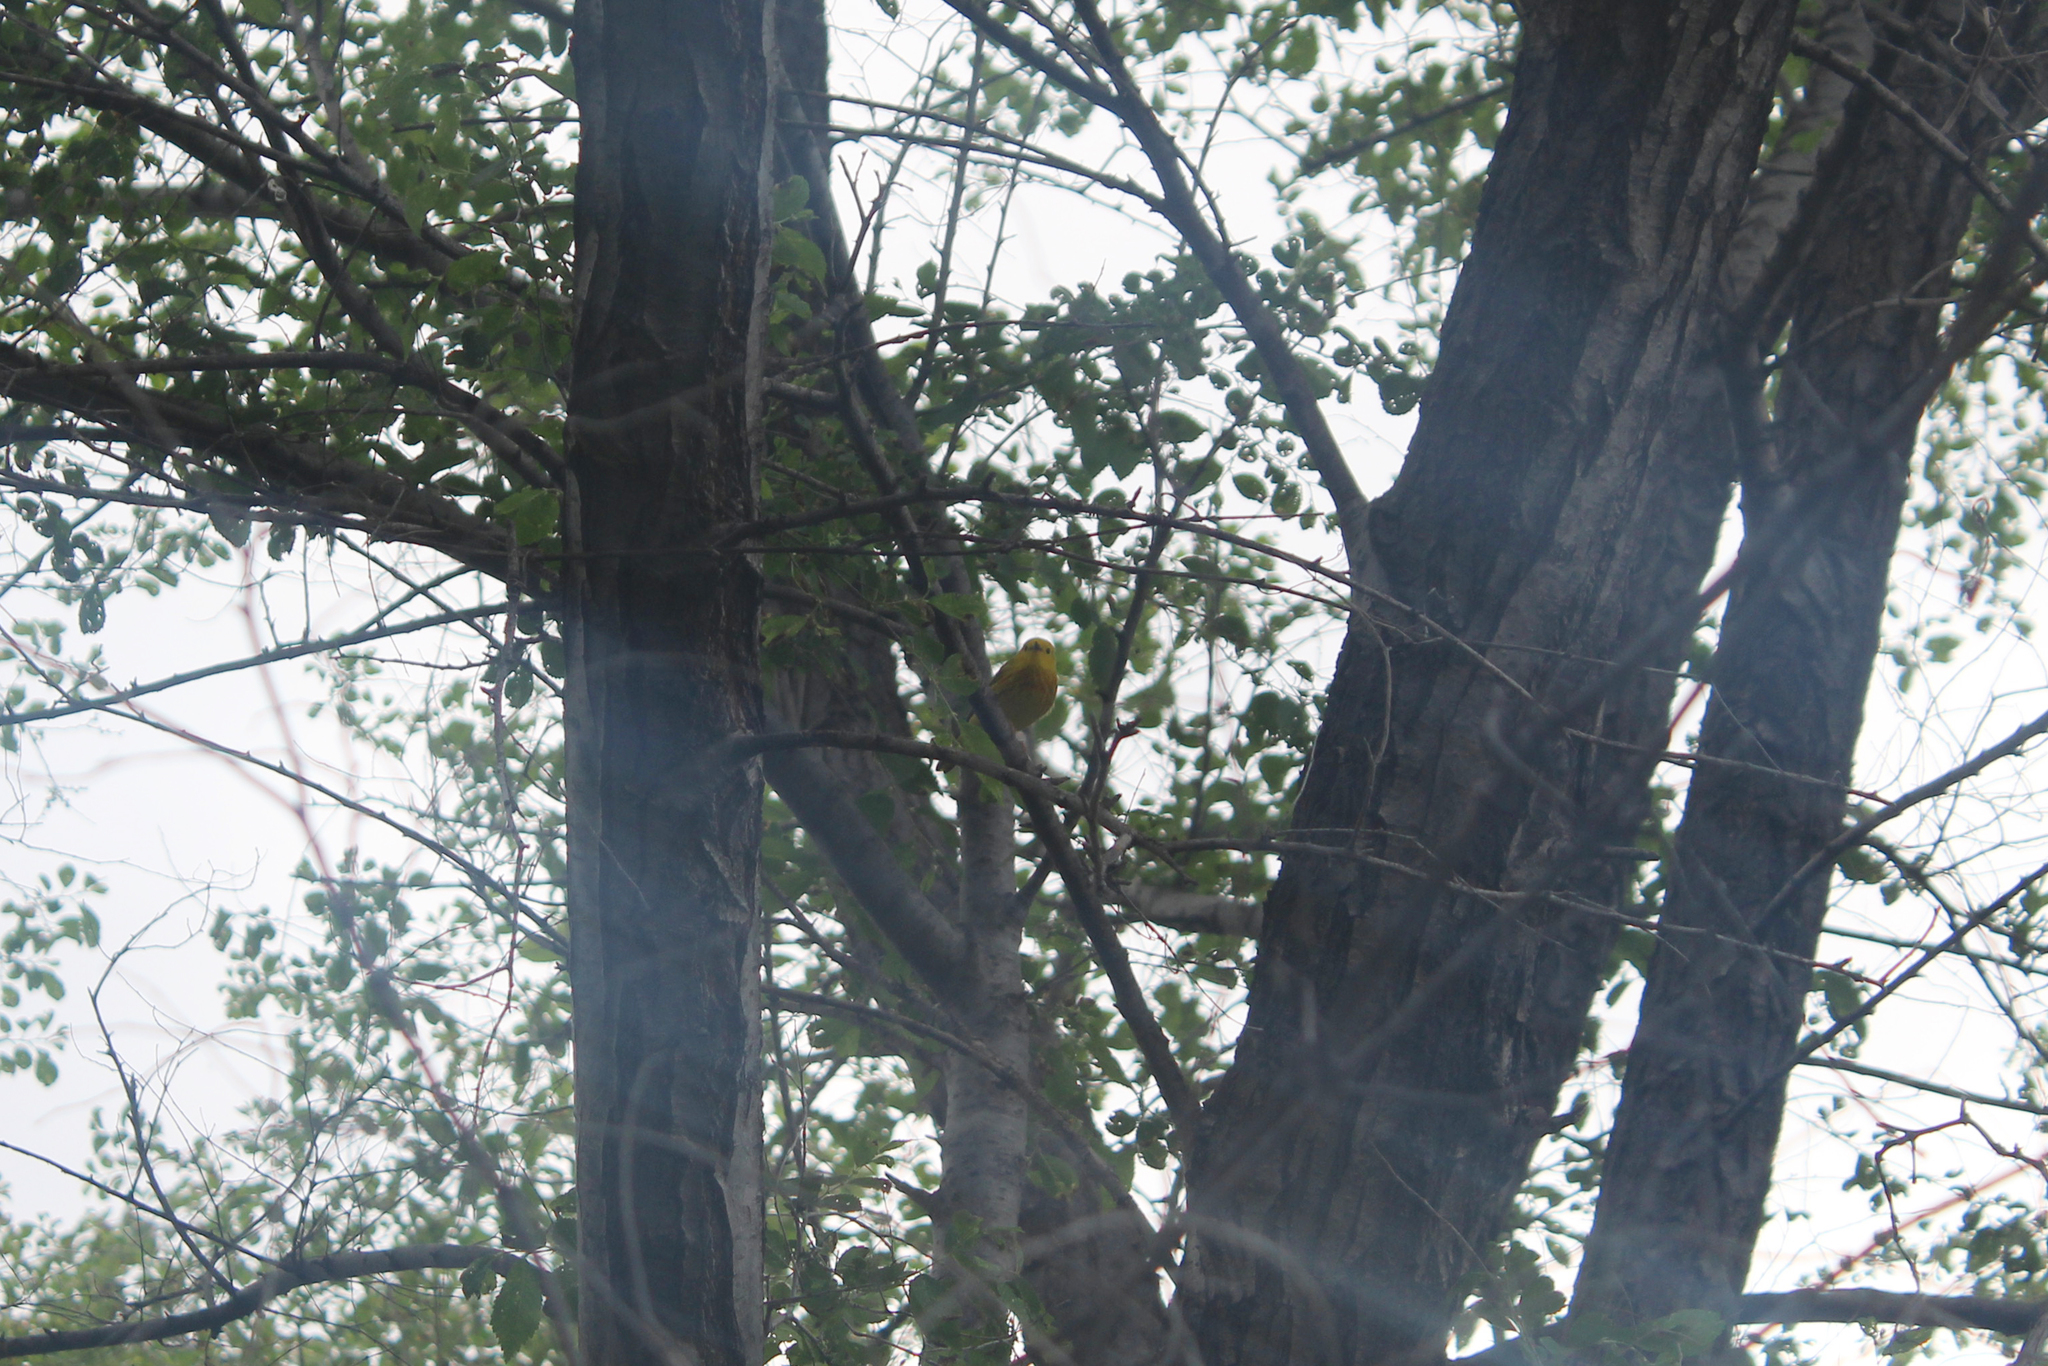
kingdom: Animalia
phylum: Chordata
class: Aves
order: Passeriformes
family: Parulidae
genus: Setophaga
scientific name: Setophaga petechia
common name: Yellow warbler
